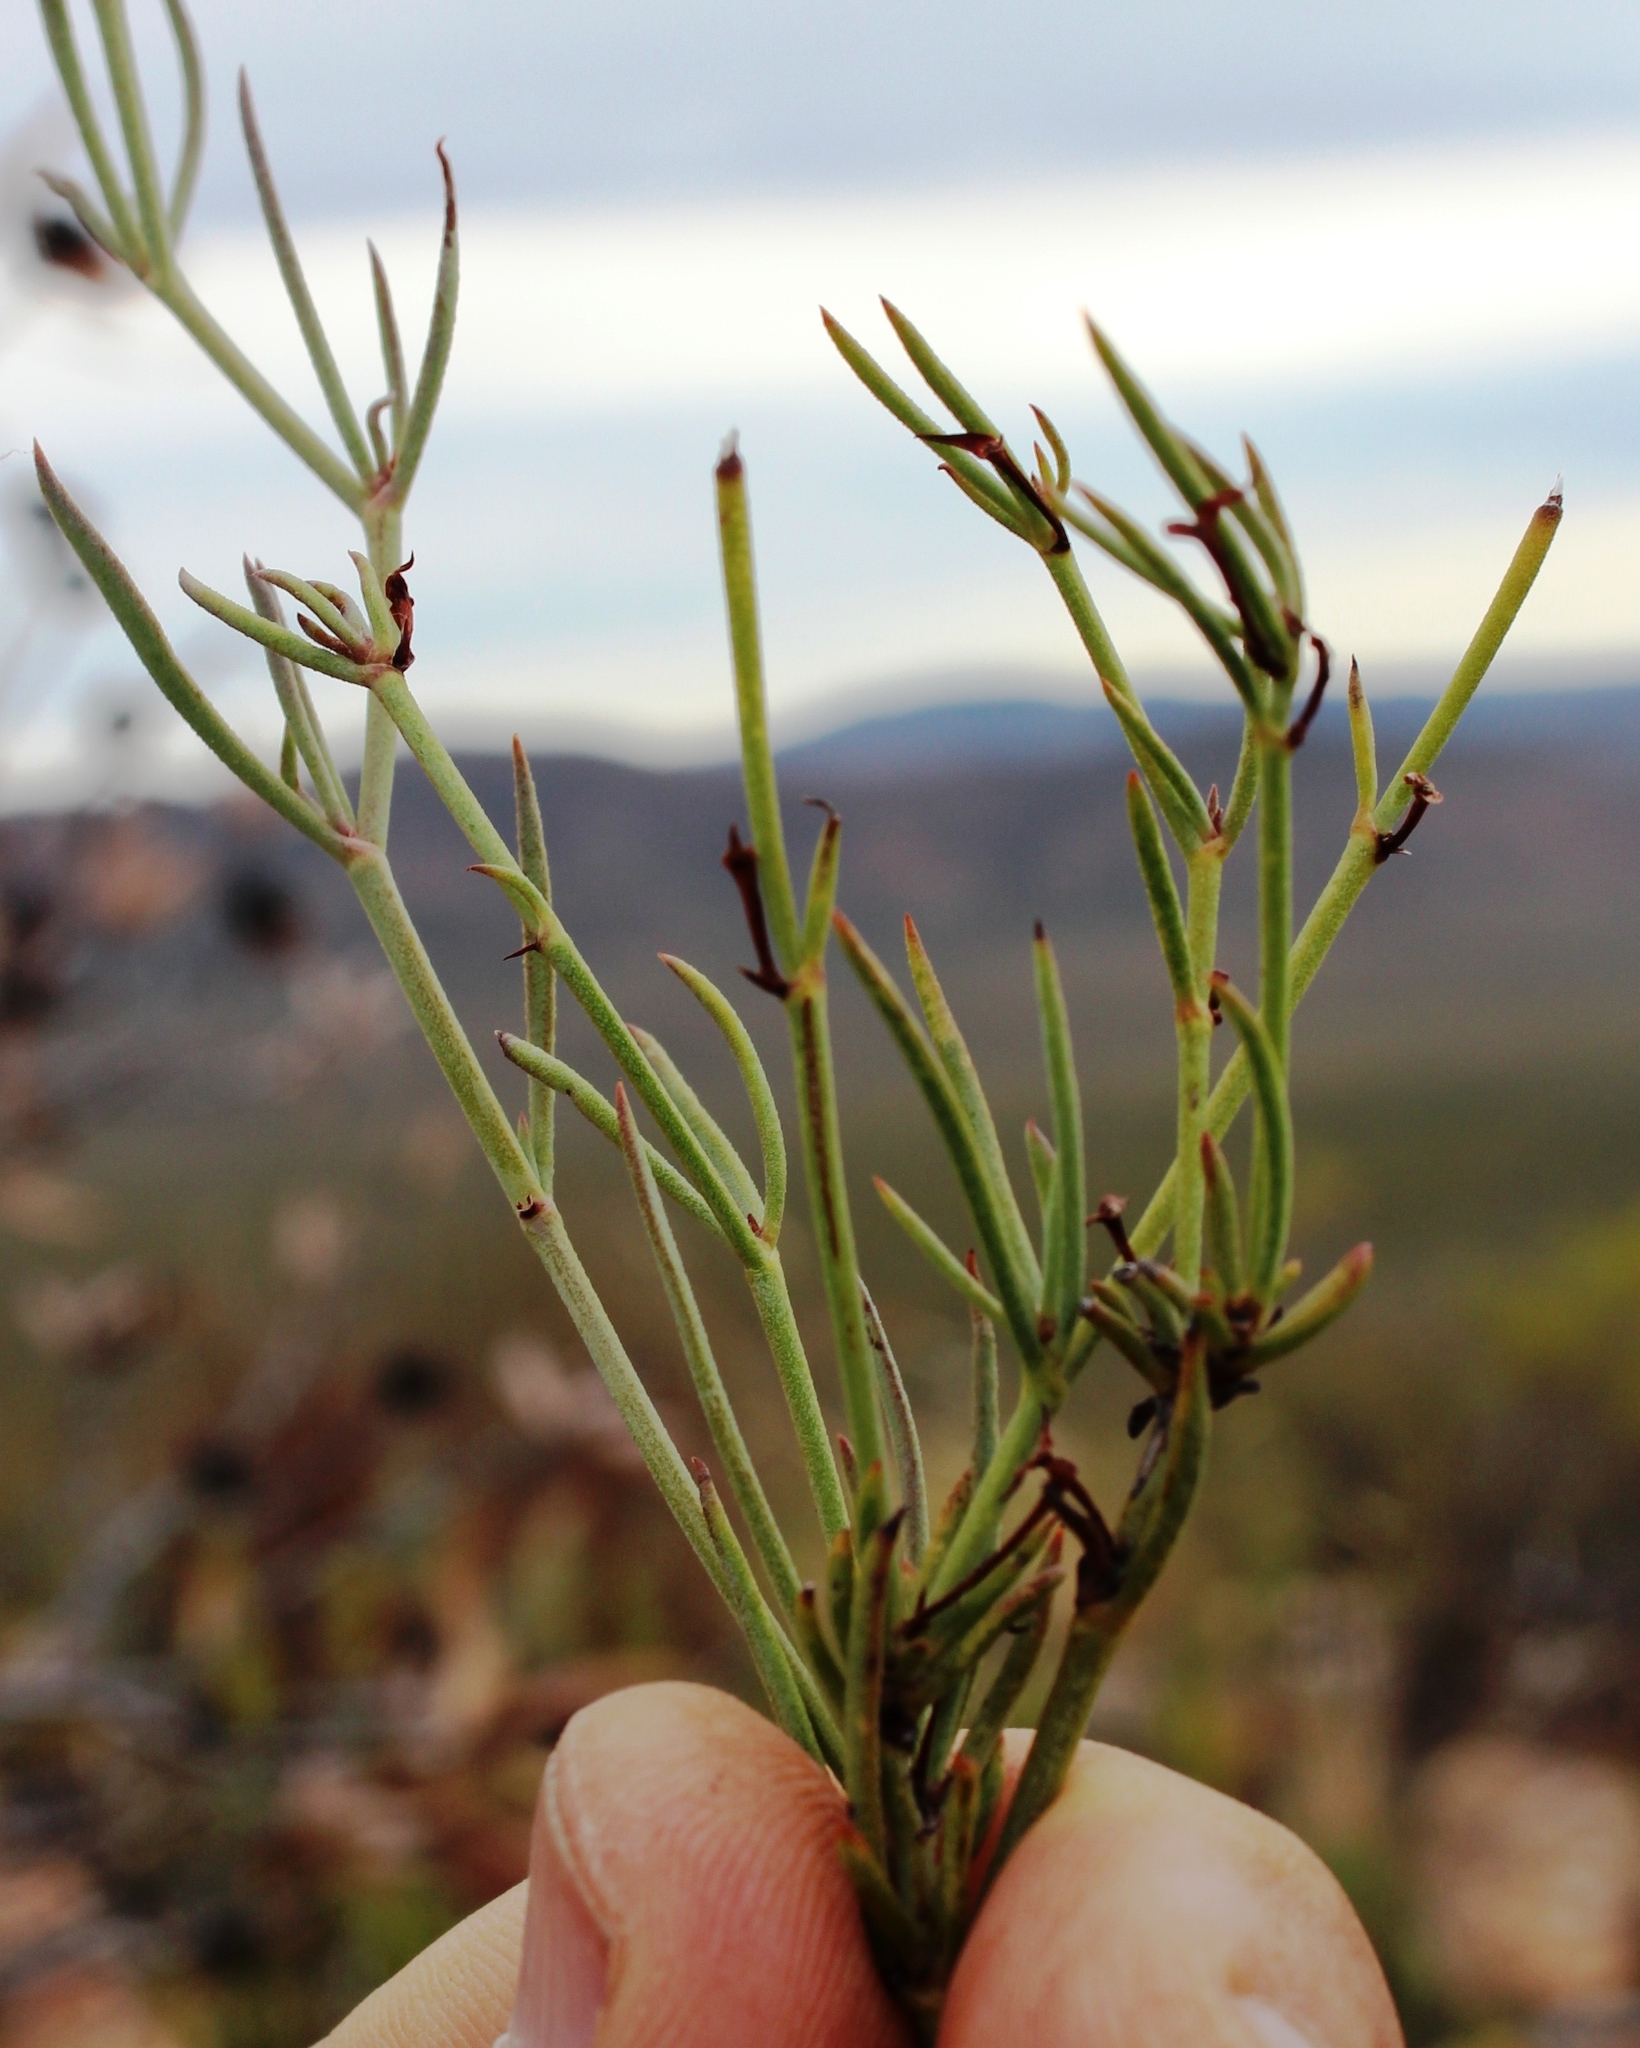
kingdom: Plantae
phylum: Tracheophyta
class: Magnoliopsida
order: Apiales
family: Apiaceae
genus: Centella
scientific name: Centella linifolia
